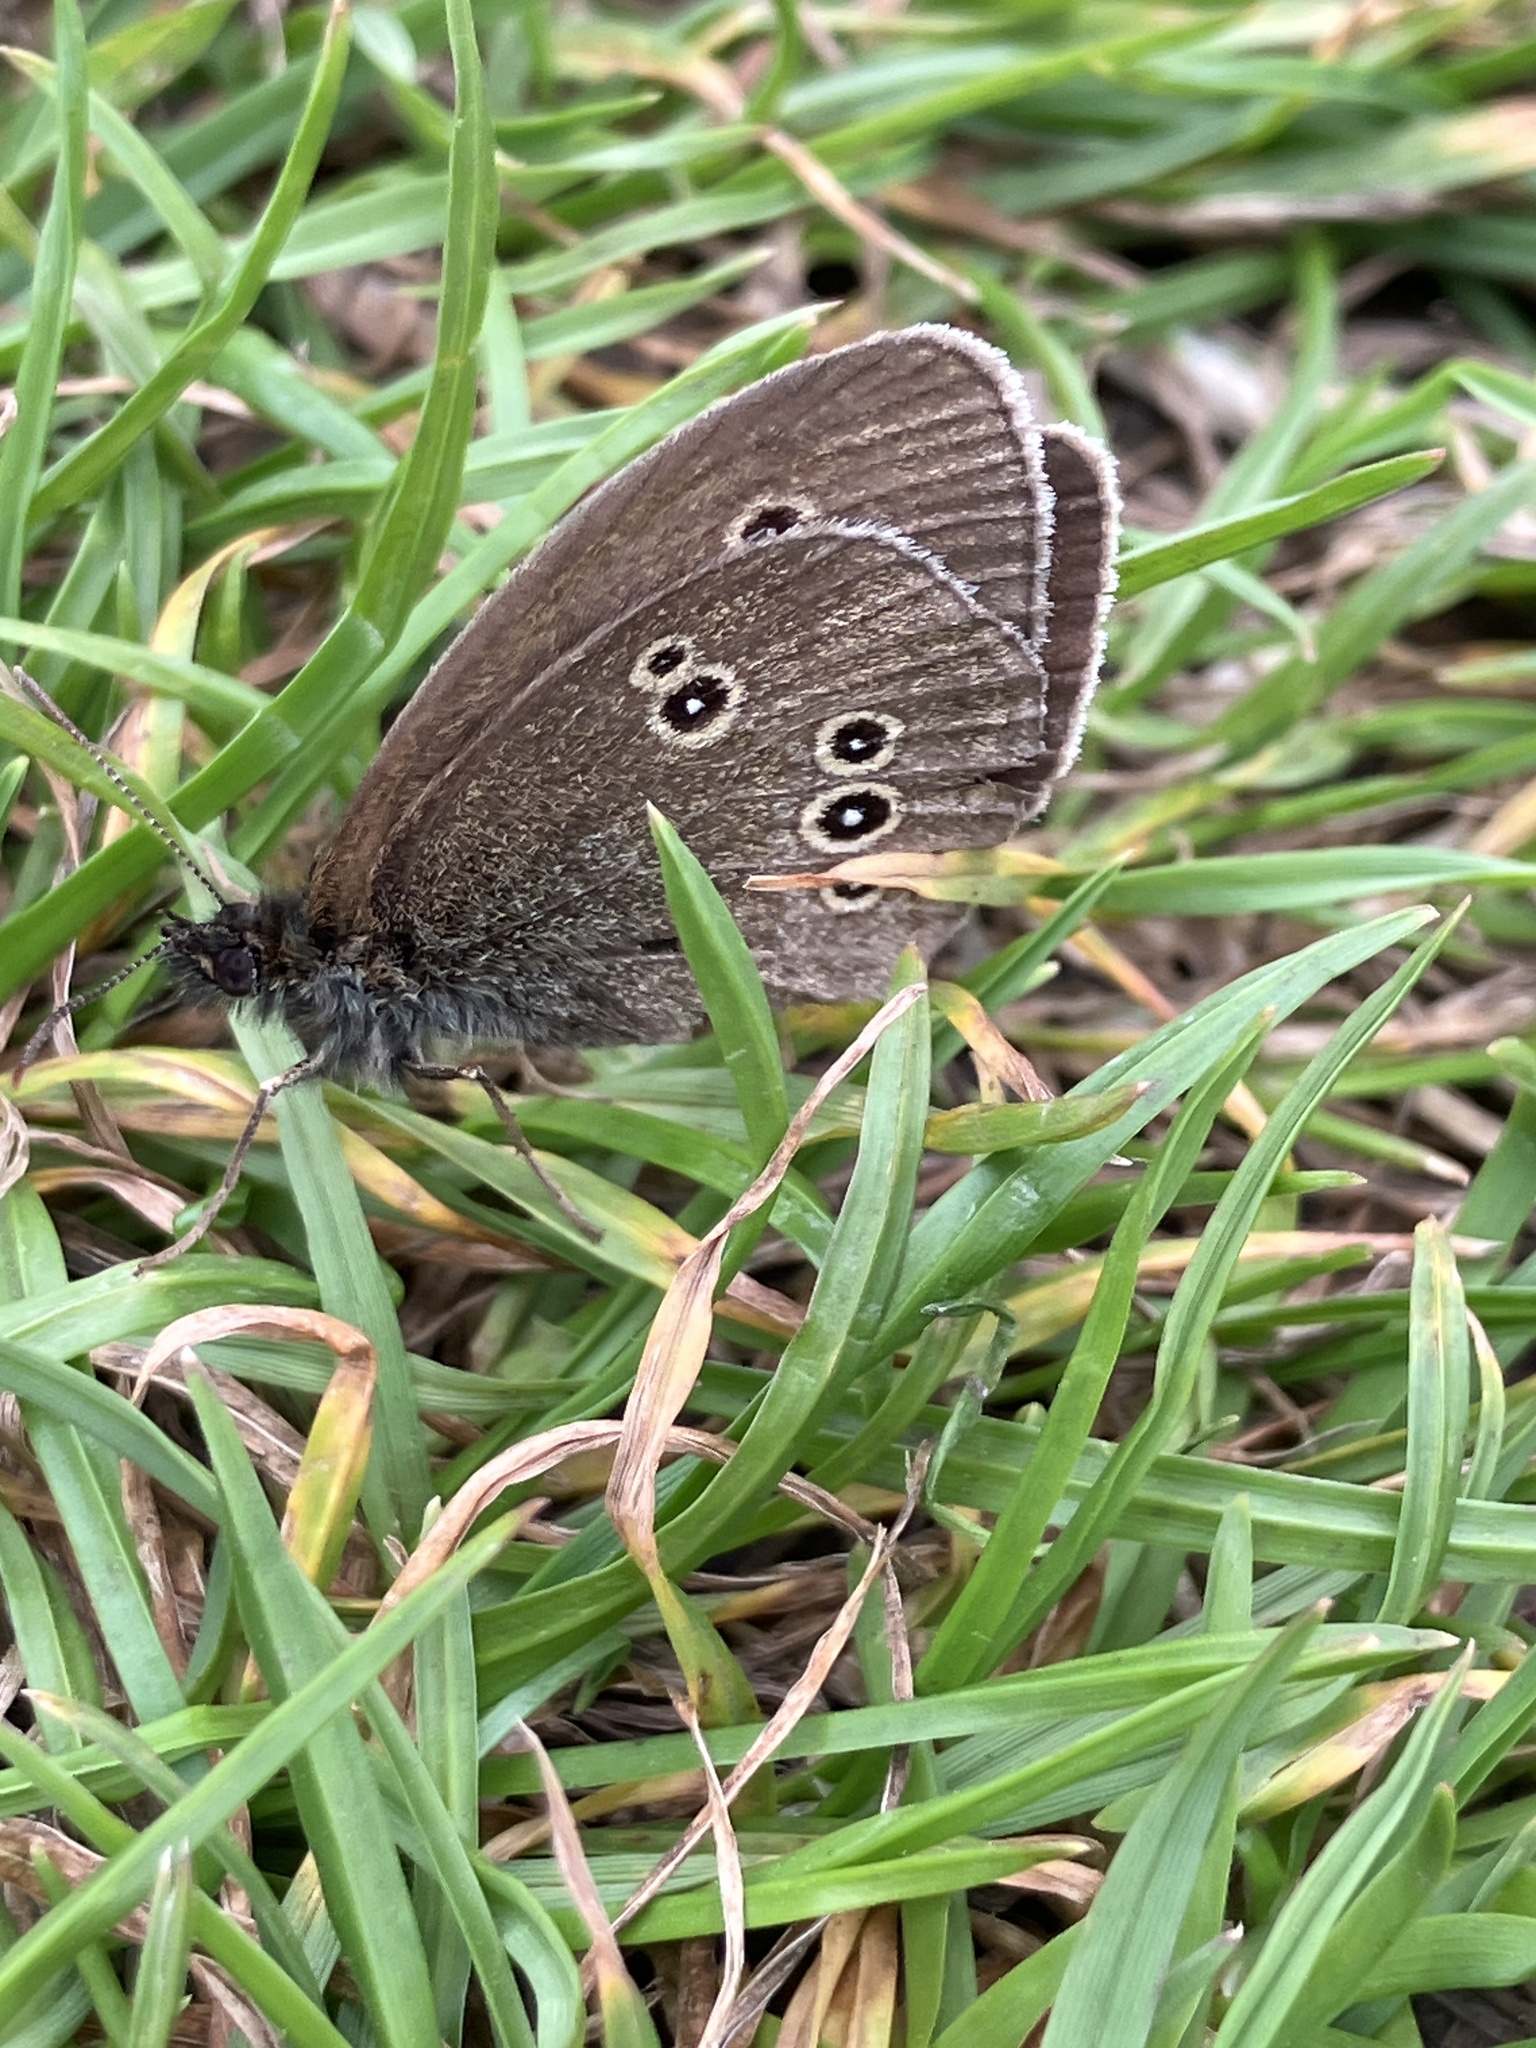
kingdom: Animalia
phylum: Arthropoda
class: Insecta
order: Lepidoptera
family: Nymphalidae
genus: Aphantopus
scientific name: Aphantopus hyperantus
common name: Ringlet
